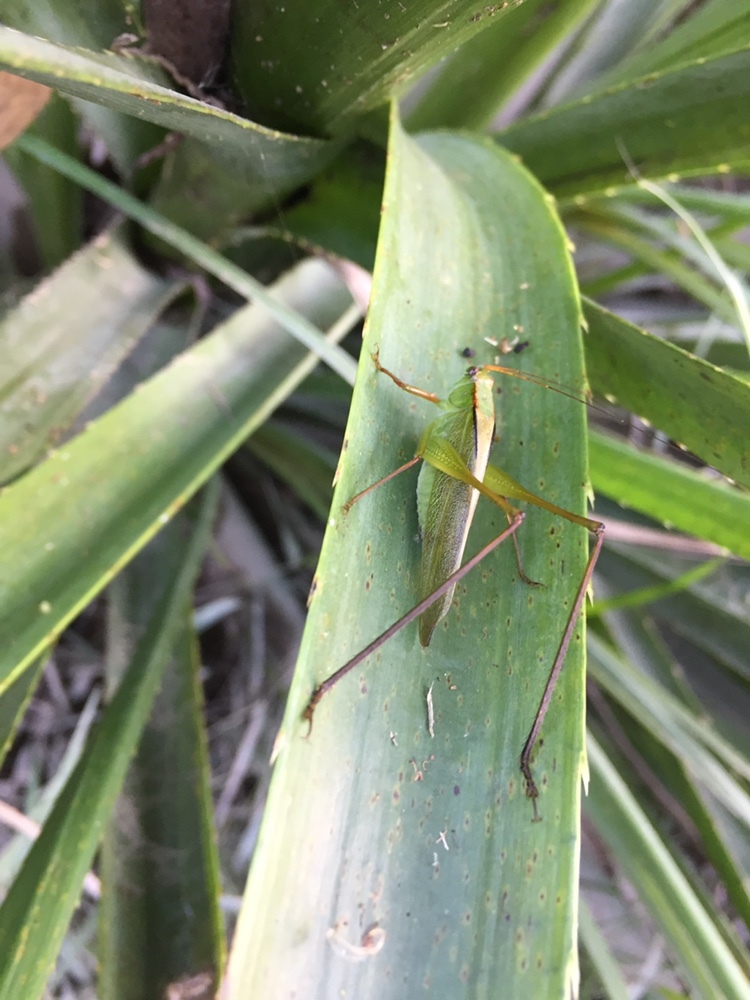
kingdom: Animalia
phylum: Arthropoda
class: Insecta
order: Orthoptera
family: Tettigoniidae
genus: Theudoria
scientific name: Theudoria melanocnemis
